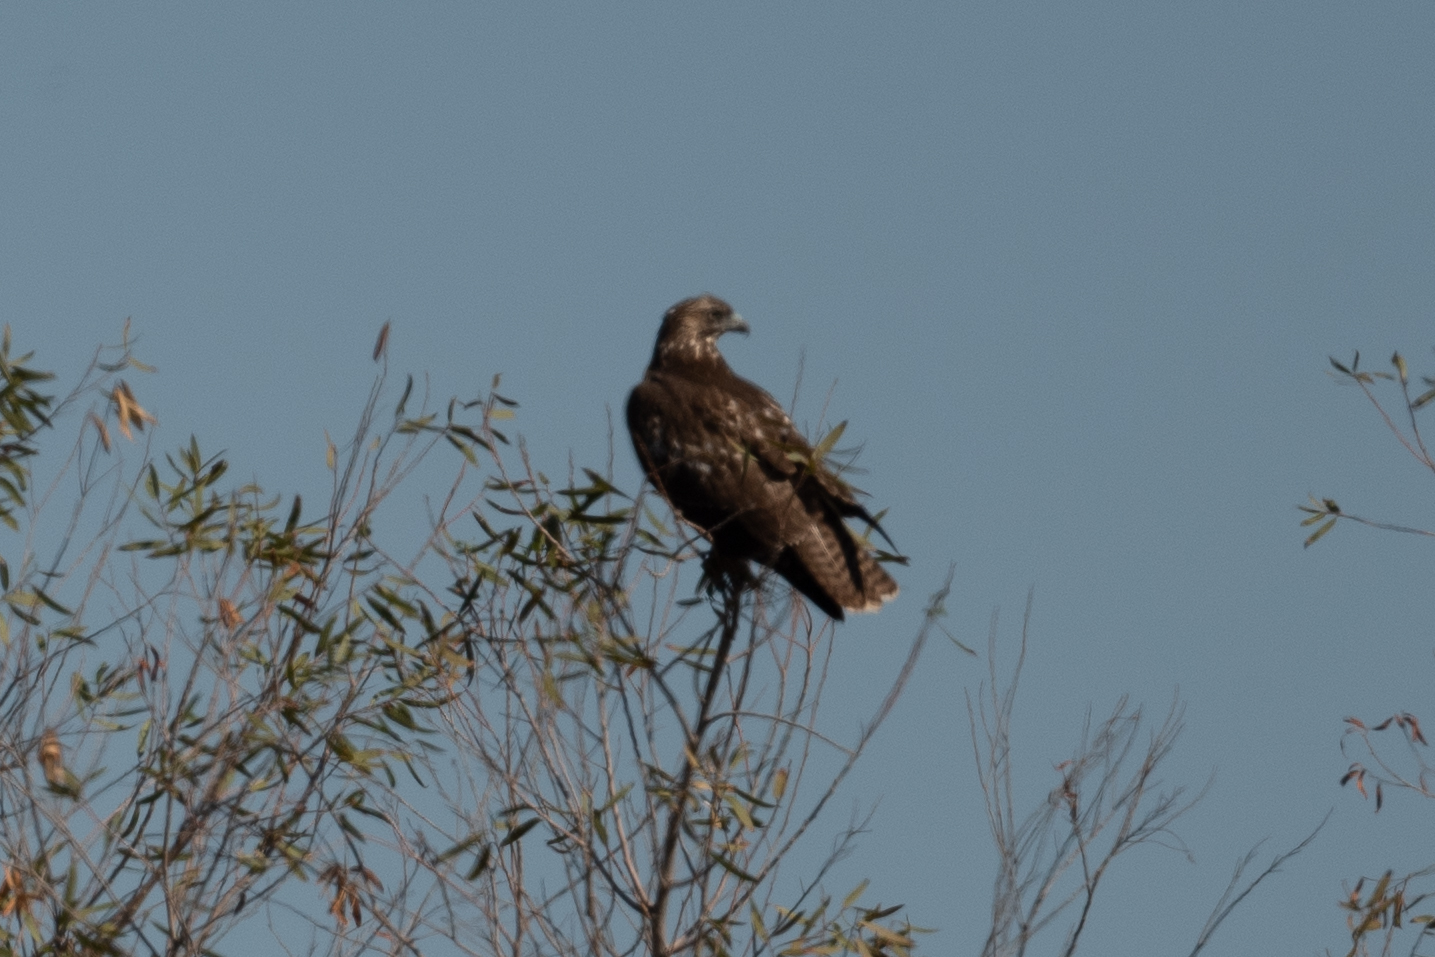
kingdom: Animalia
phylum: Chordata
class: Aves
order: Accipitriformes
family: Accipitridae
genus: Buteo
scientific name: Buteo jamaicensis
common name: Red-tailed hawk
